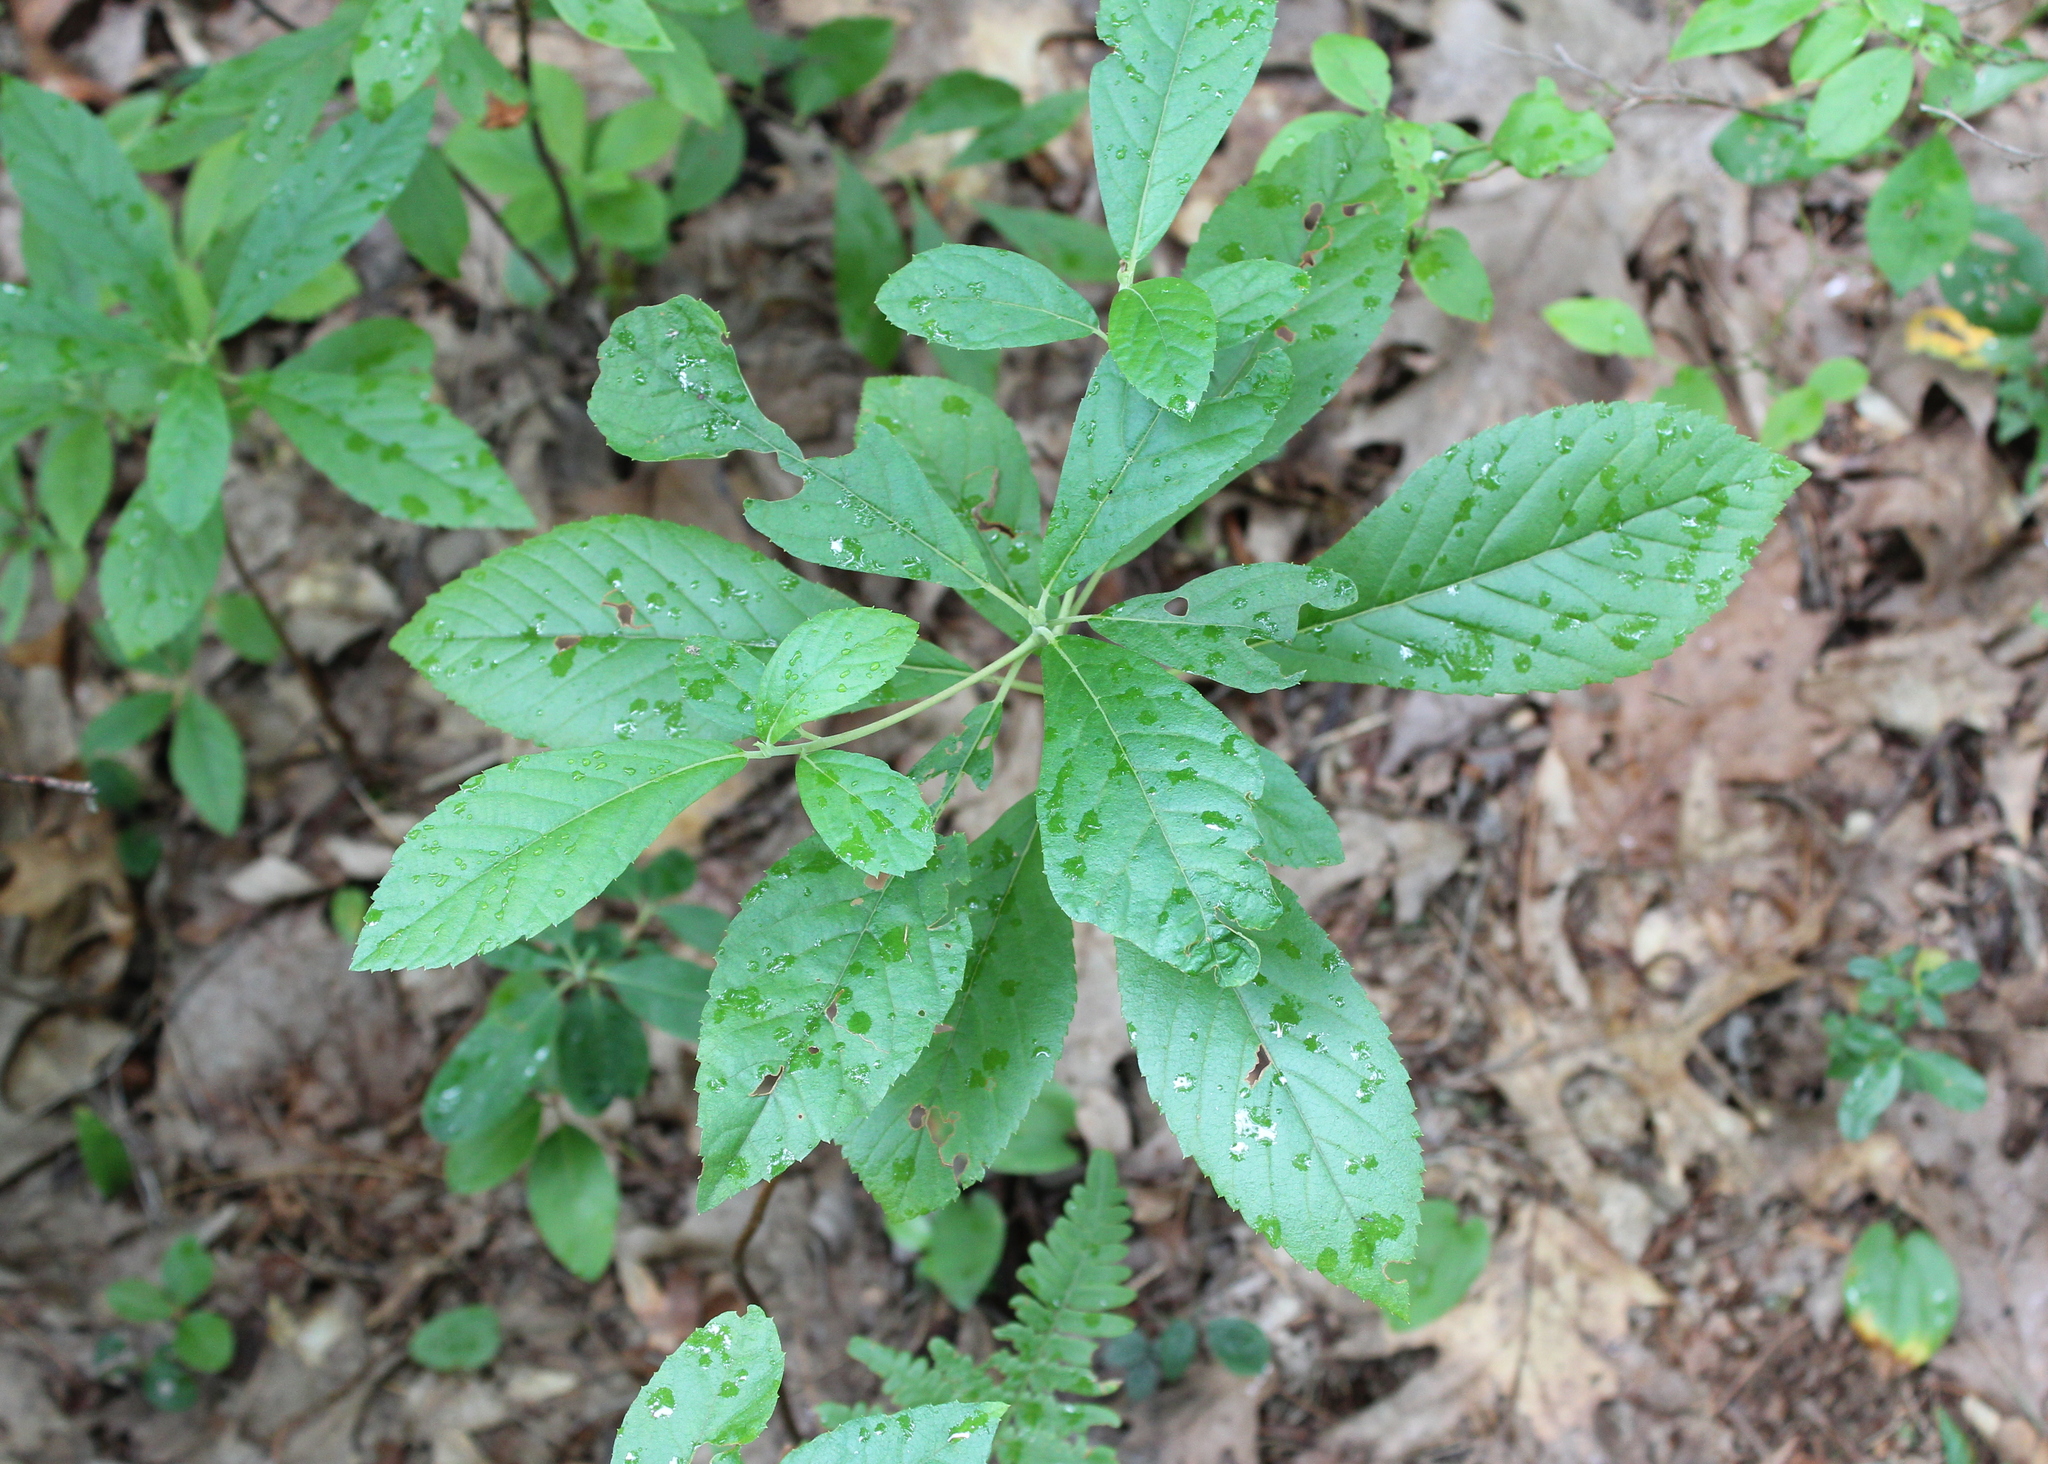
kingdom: Plantae
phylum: Tracheophyta
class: Magnoliopsida
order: Ericales
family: Clethraceae
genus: Clethra
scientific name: Clethra alnifolia
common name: Sweet pepperbush
